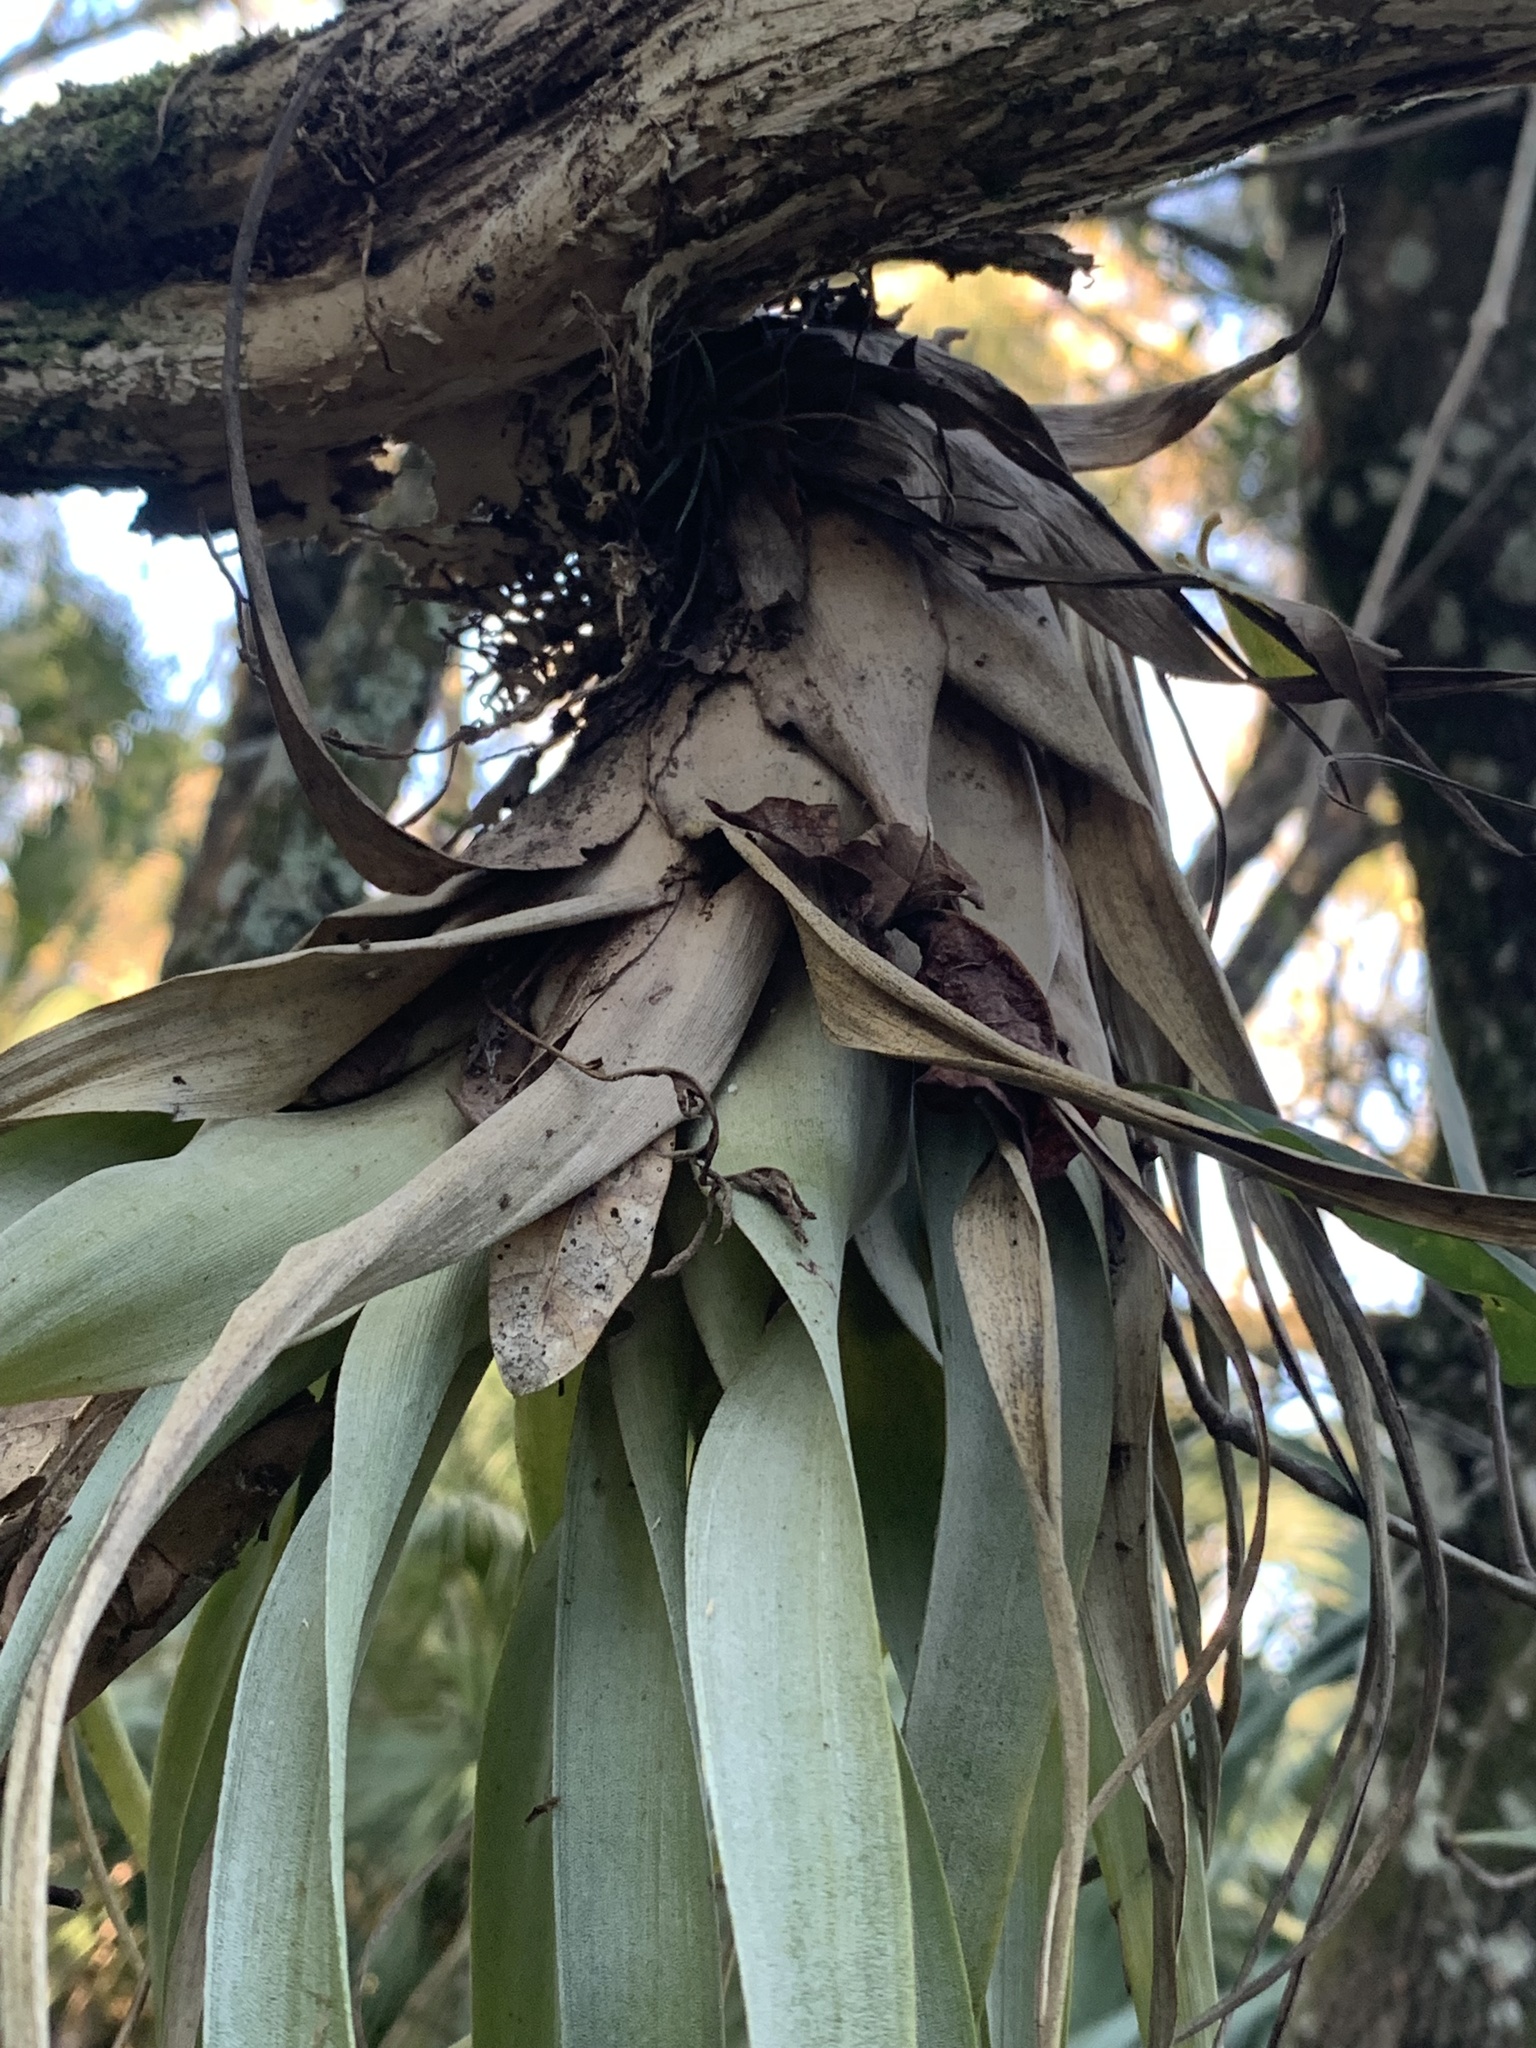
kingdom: Plantae
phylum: Tracheophyta
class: Liliopsida
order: Poales
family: Bromeliaceae
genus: Tillandsia
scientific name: Tillandsia utriculata
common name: Wild pine
